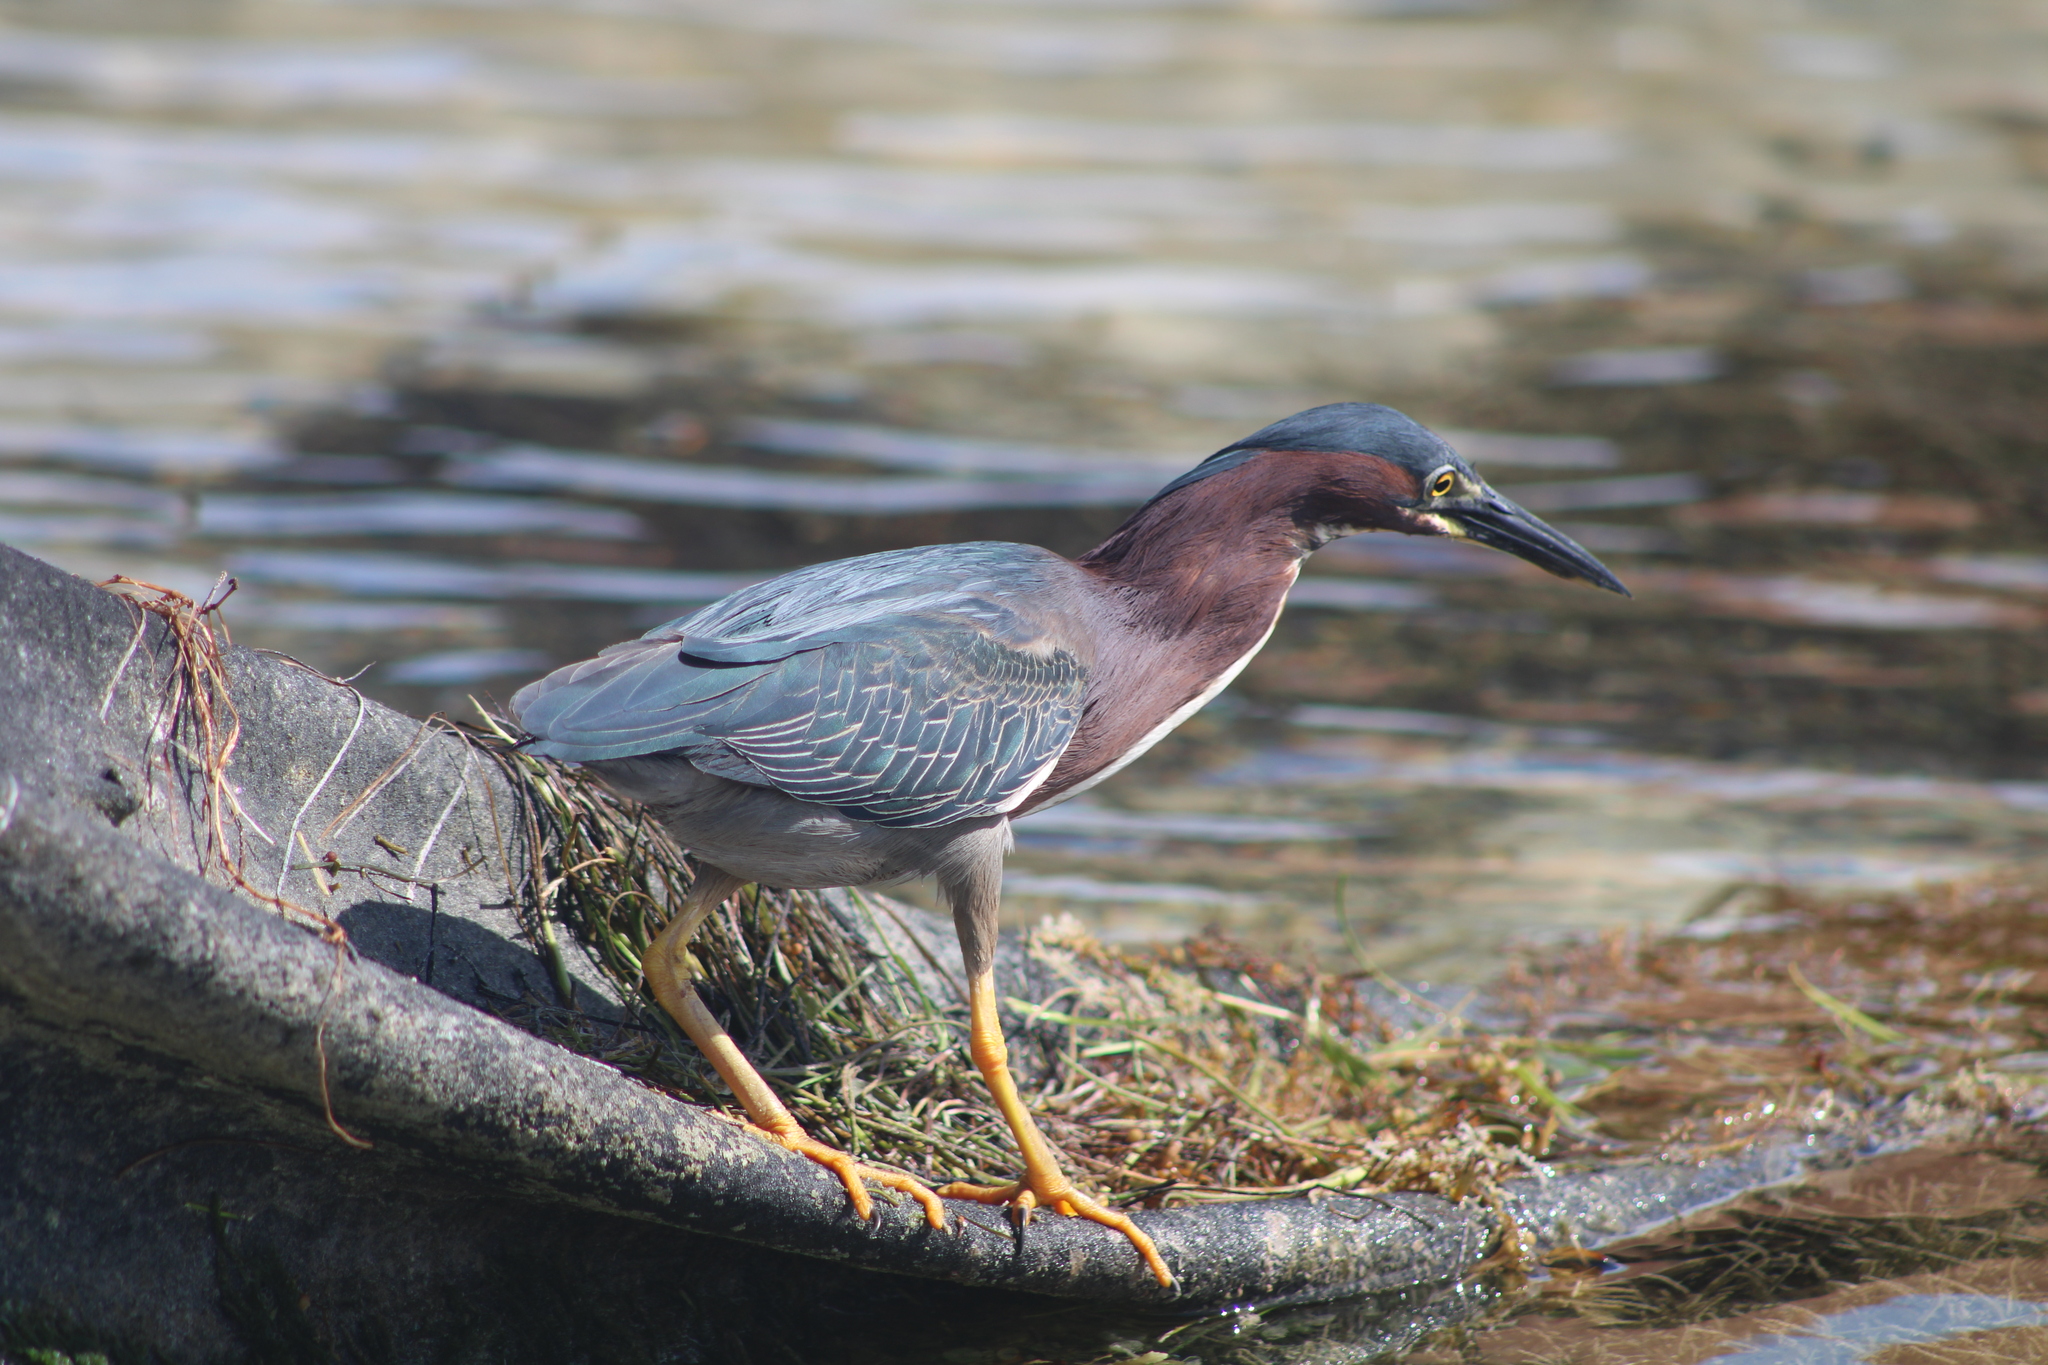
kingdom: Animalia
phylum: Chordata
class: Aves
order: Pelecaniformes
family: Ardeidae
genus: Butorides
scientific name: Butorides virescens
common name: Green heron
